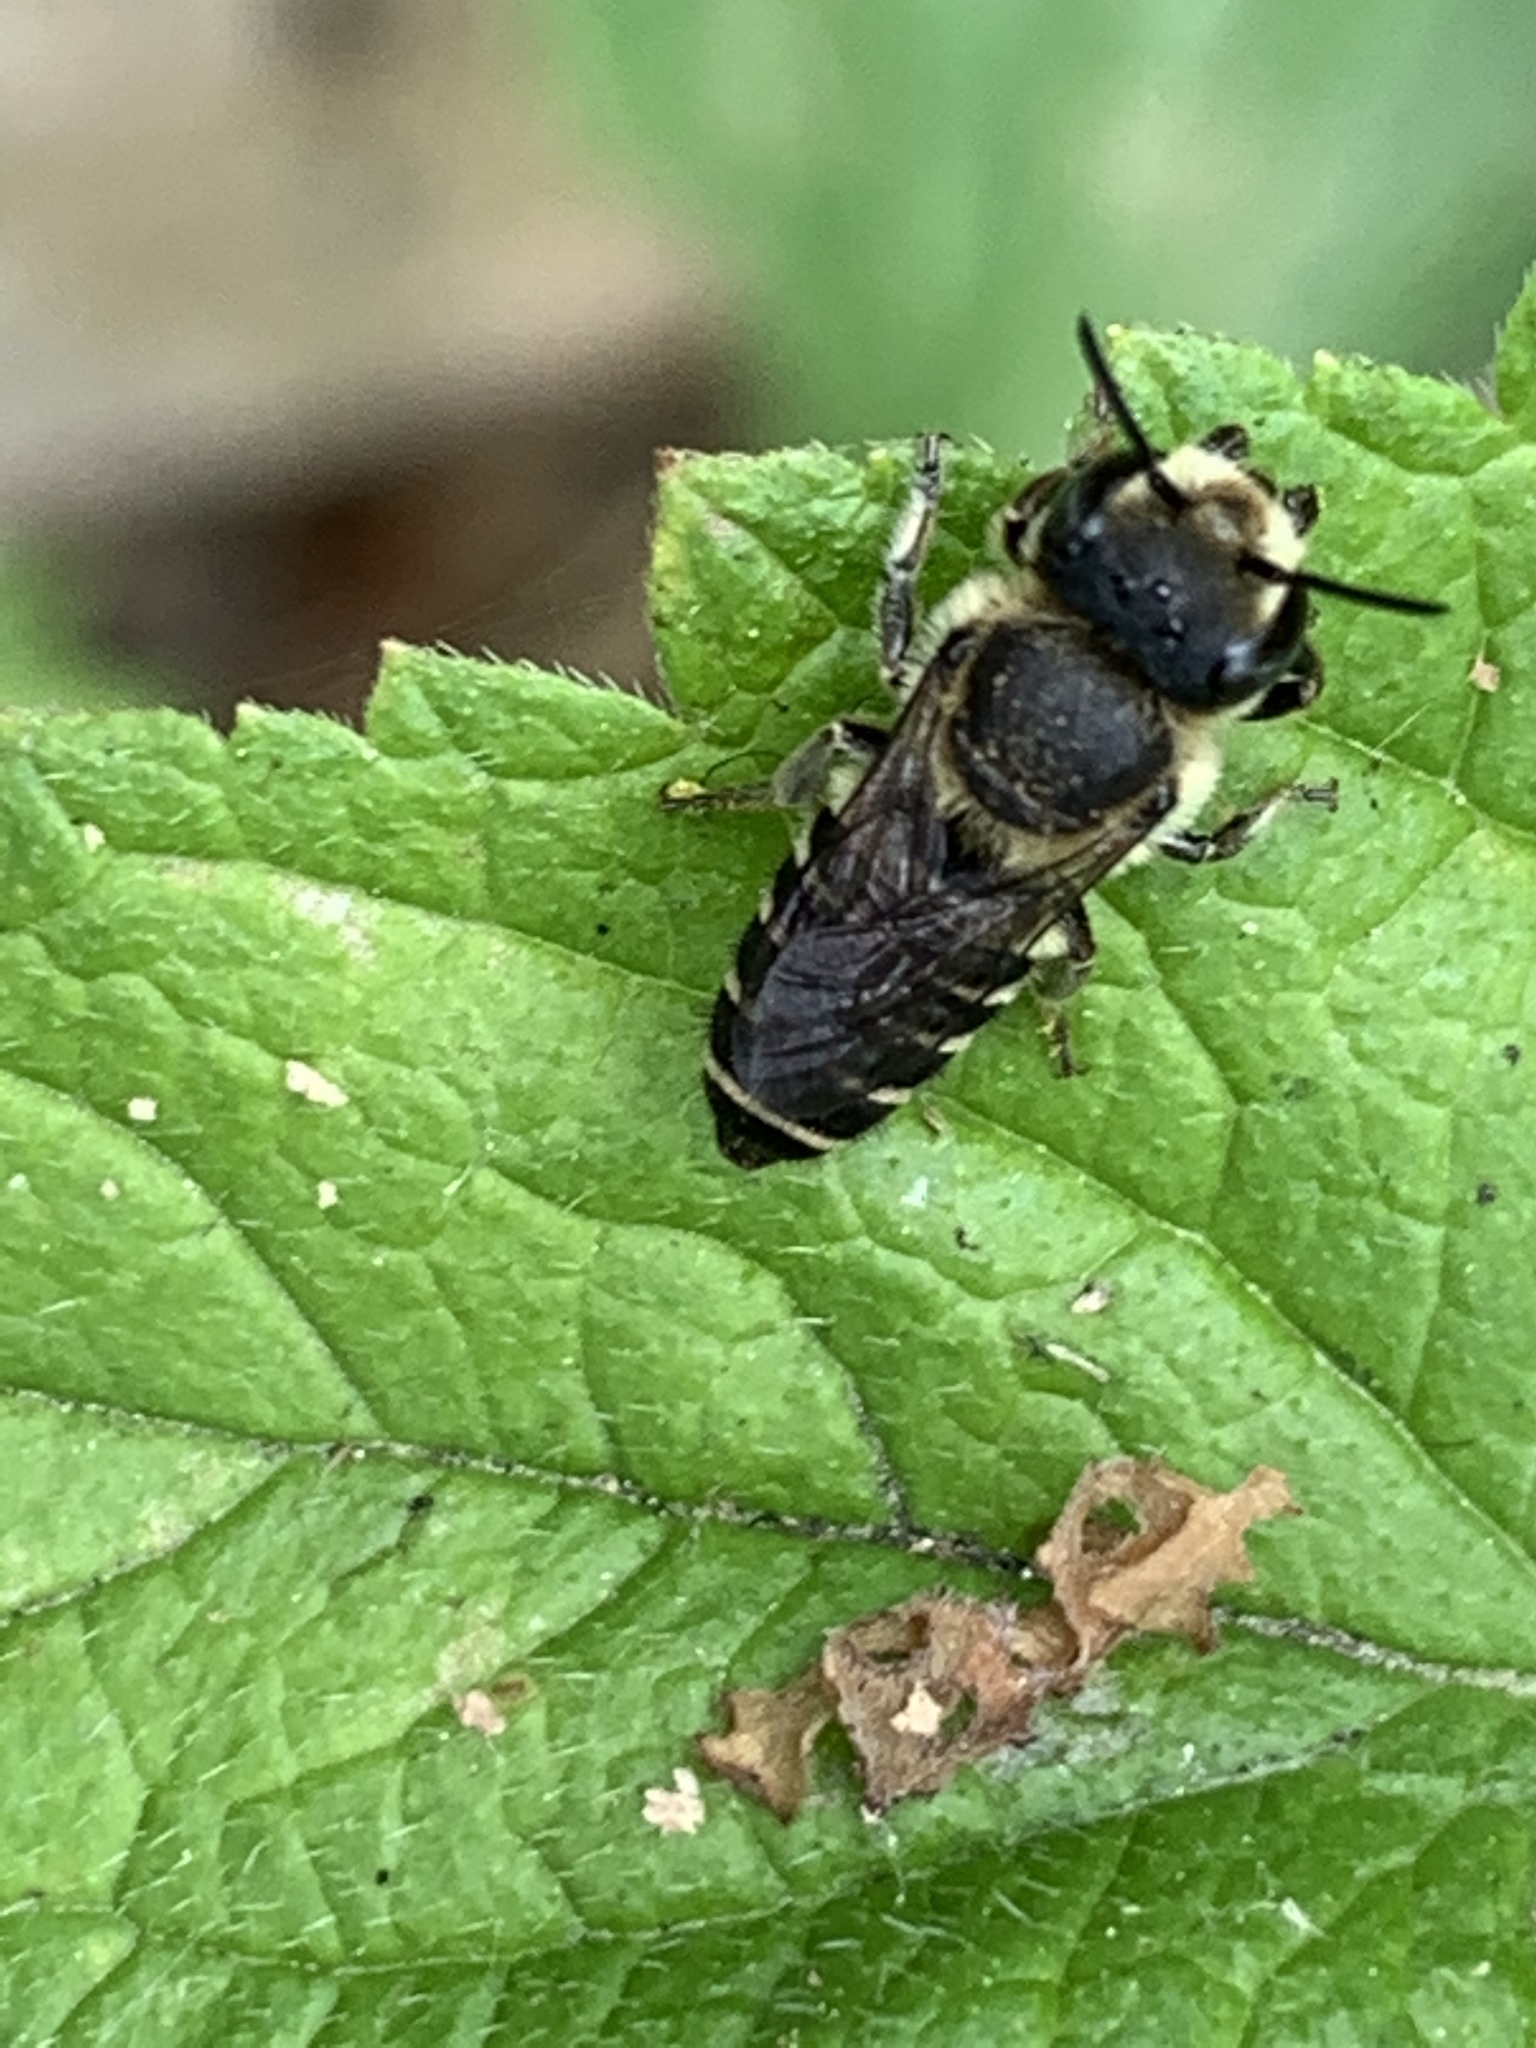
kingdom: Animalia
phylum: Arthropoda
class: Insecta
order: Hymenoptera
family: Megachilidae
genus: Megachile
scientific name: Megachile rotundata
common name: Alfalfa leafcutting bee
